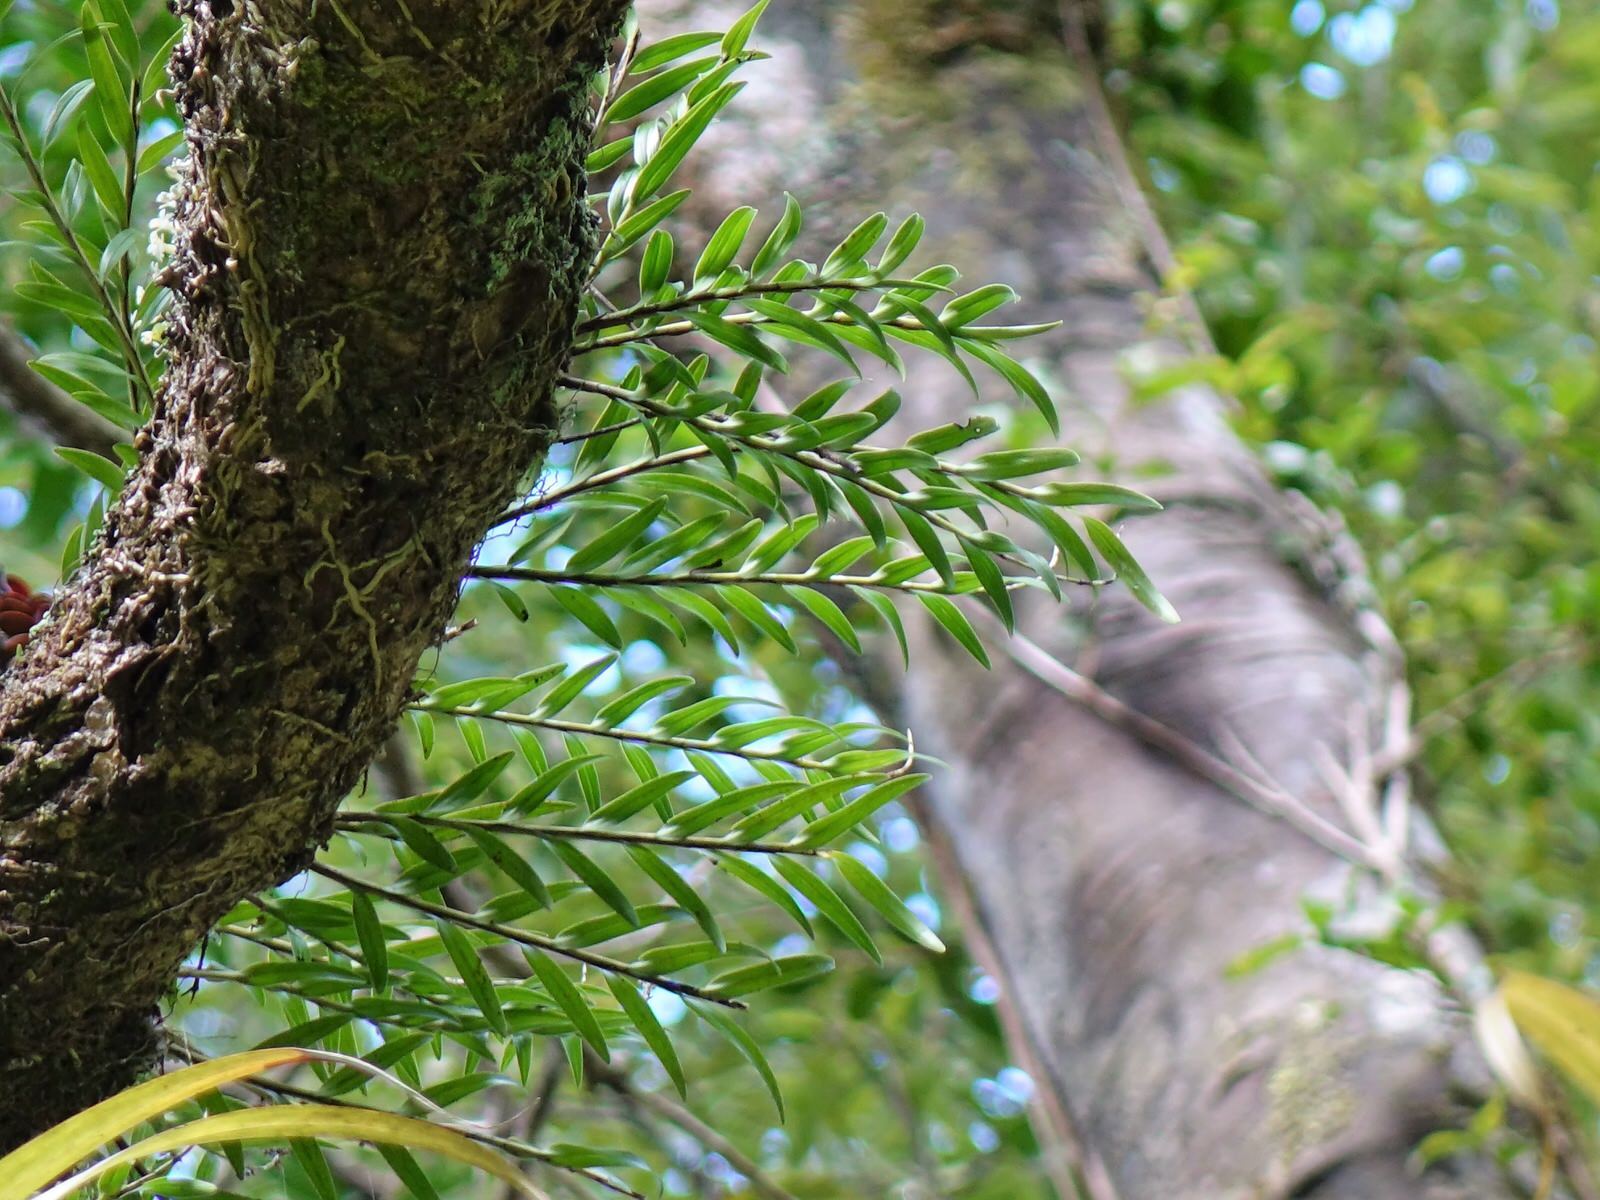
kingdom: Plantae
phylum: Tracheophyta
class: Liliopsida
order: Asparagales
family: Orchidaceae
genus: Earina
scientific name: Earina autumnalis
